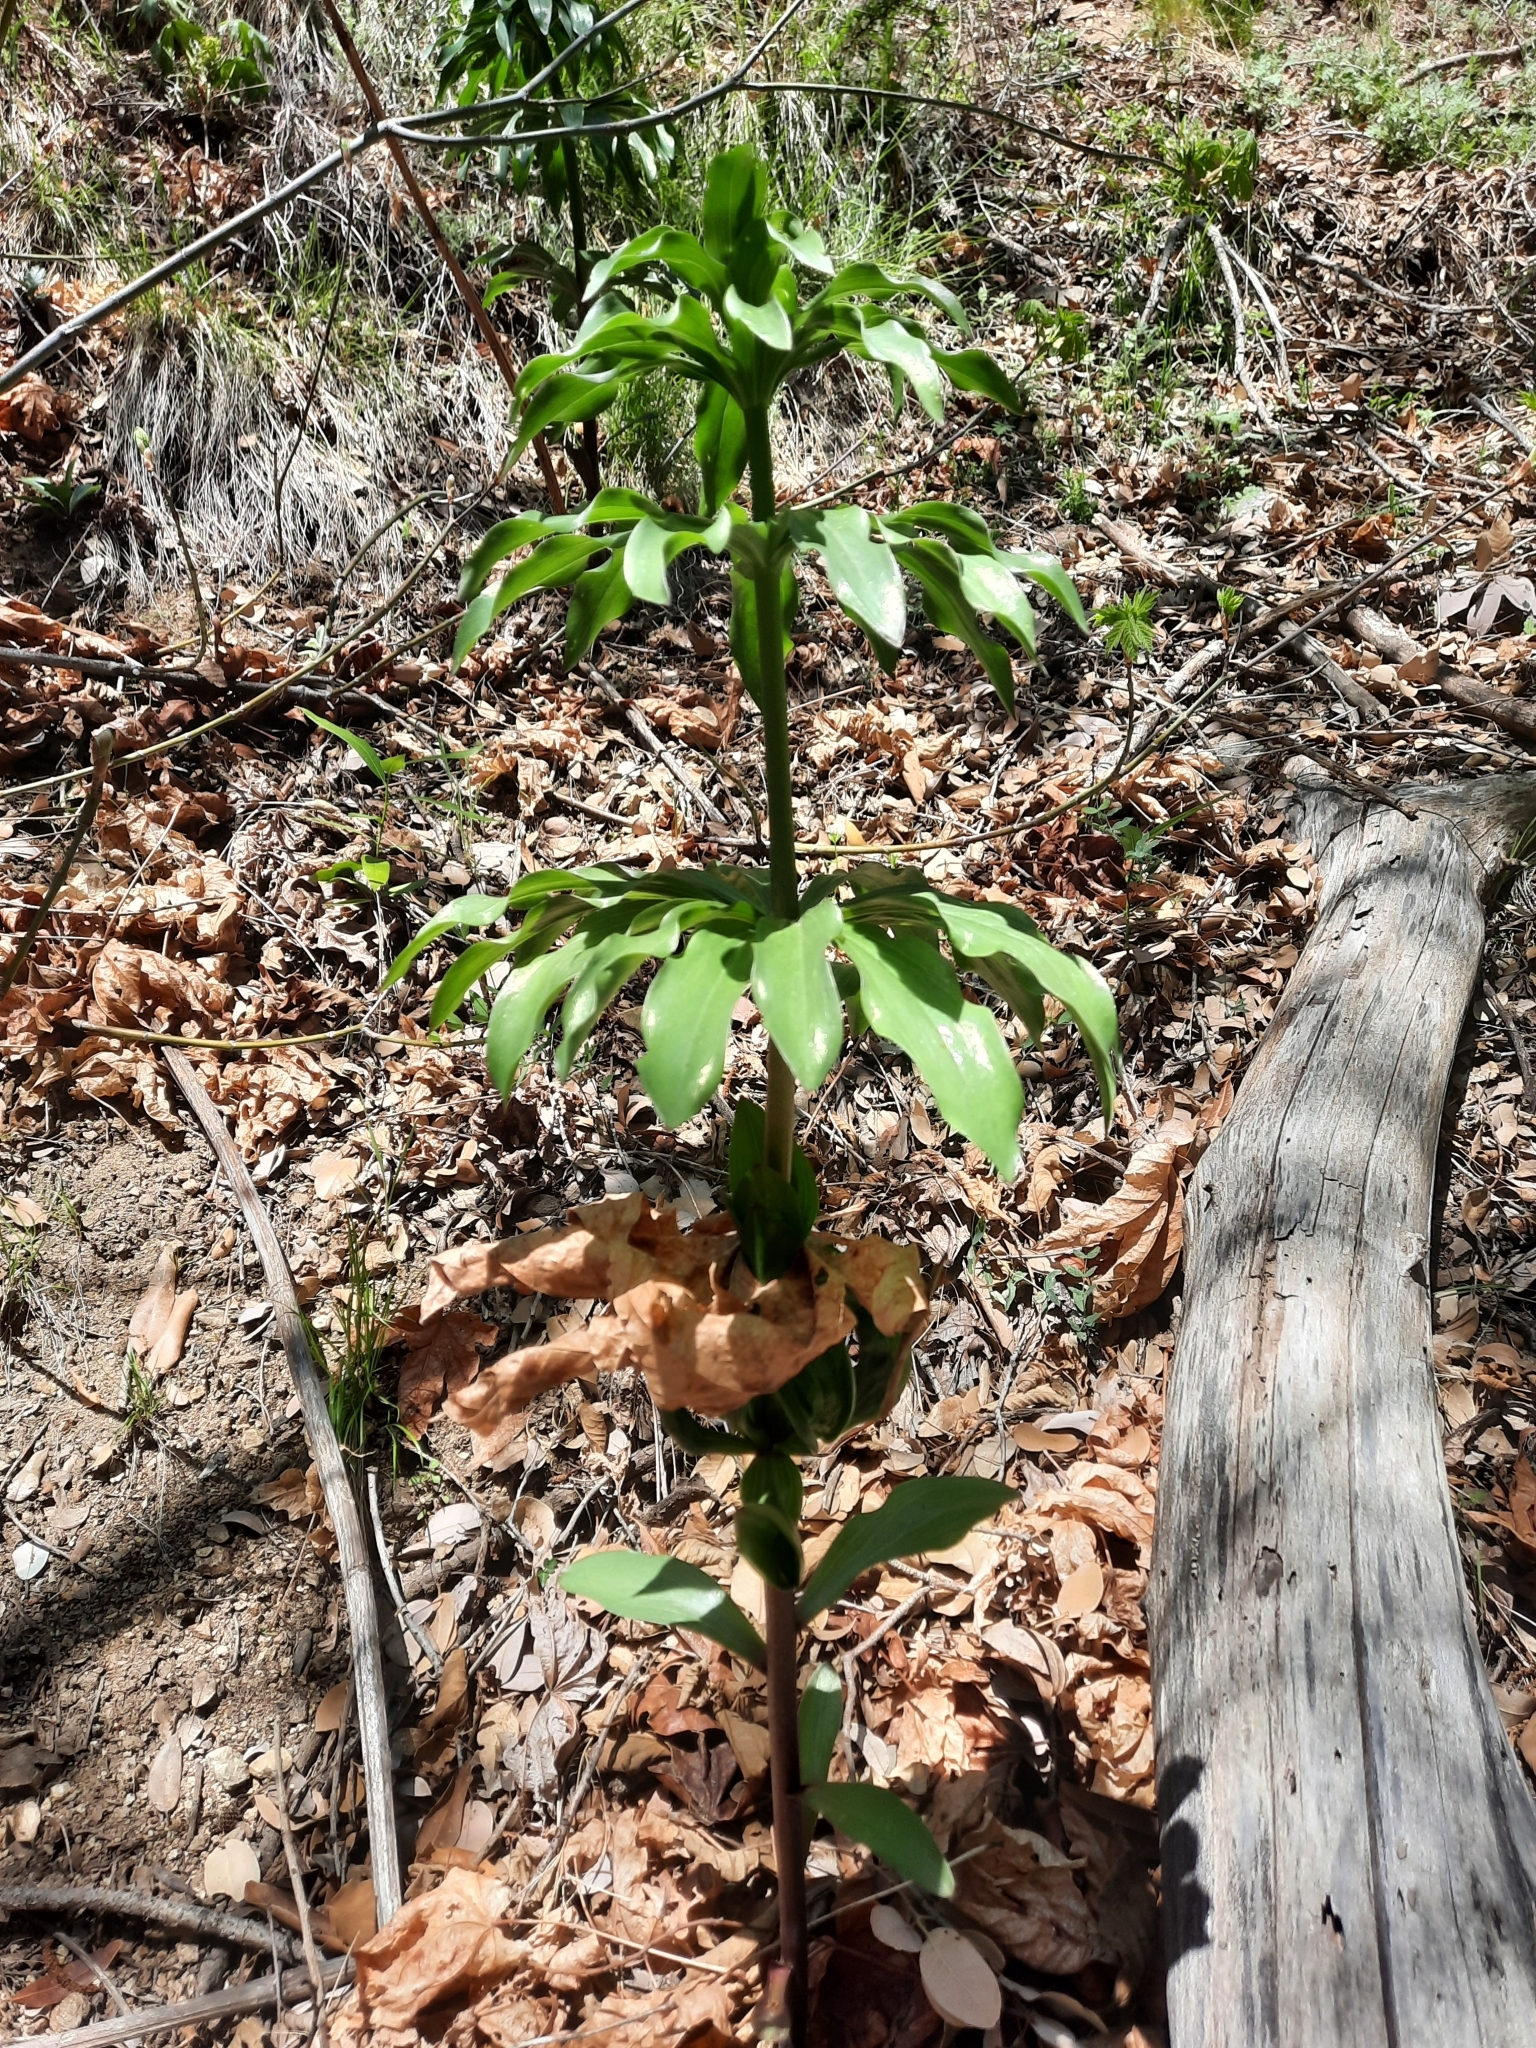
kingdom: Plantae
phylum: Tracheophyta
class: Liliopsida
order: Liliales
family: Liliaceae
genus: Lilium
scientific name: Lilium humboldtii
